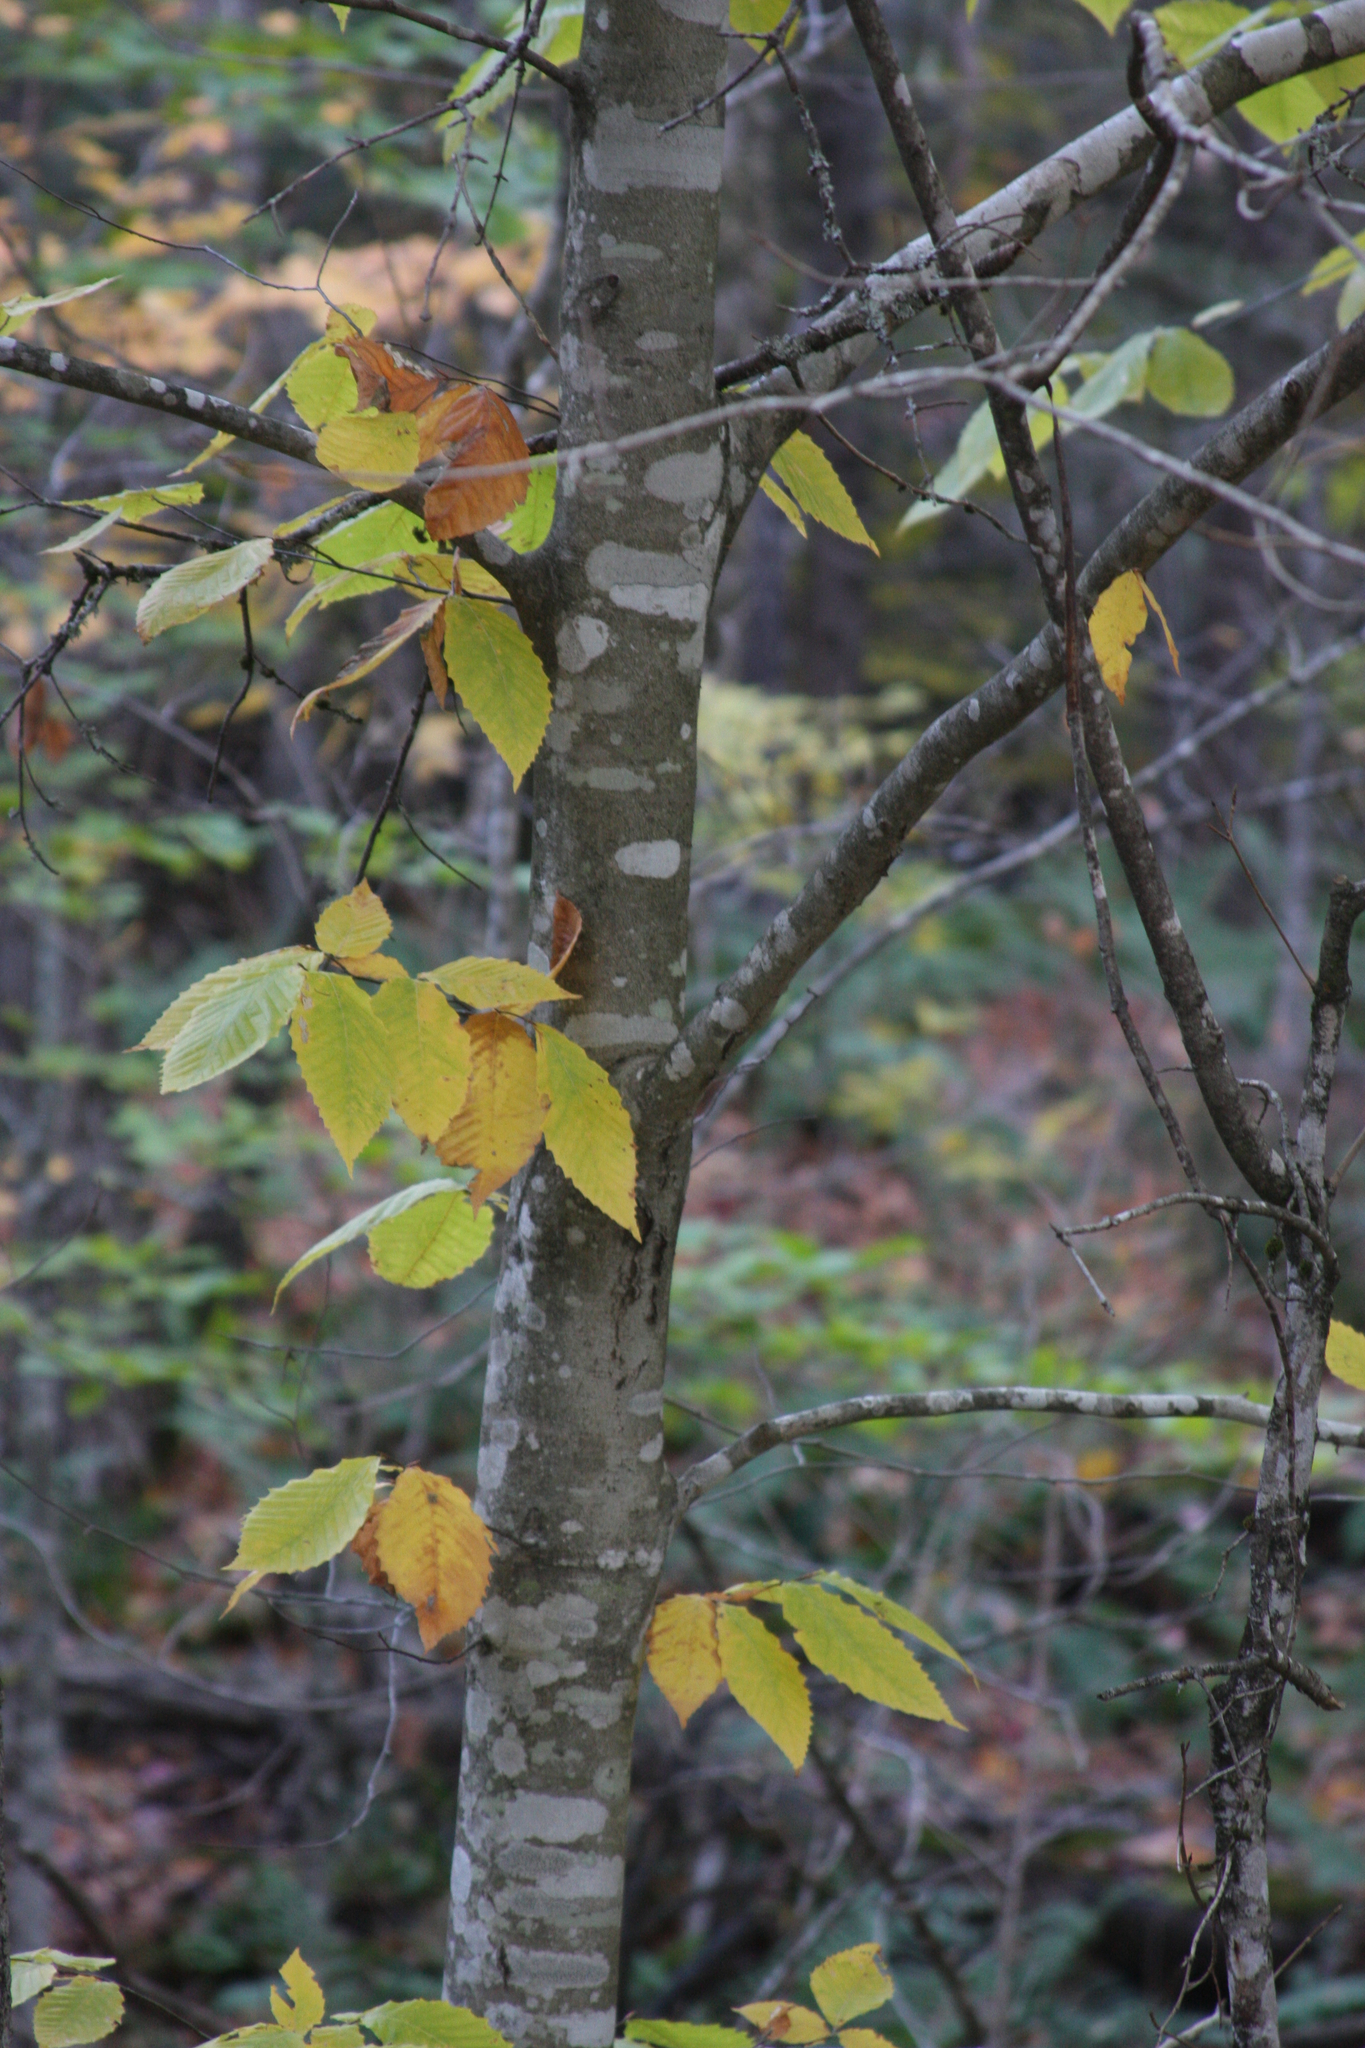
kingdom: Plantae
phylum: Tracheophyta
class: Magnoliopsida
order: Fagales
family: Fagaceae
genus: Fagus
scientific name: Fagus grandifolia
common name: American beech
